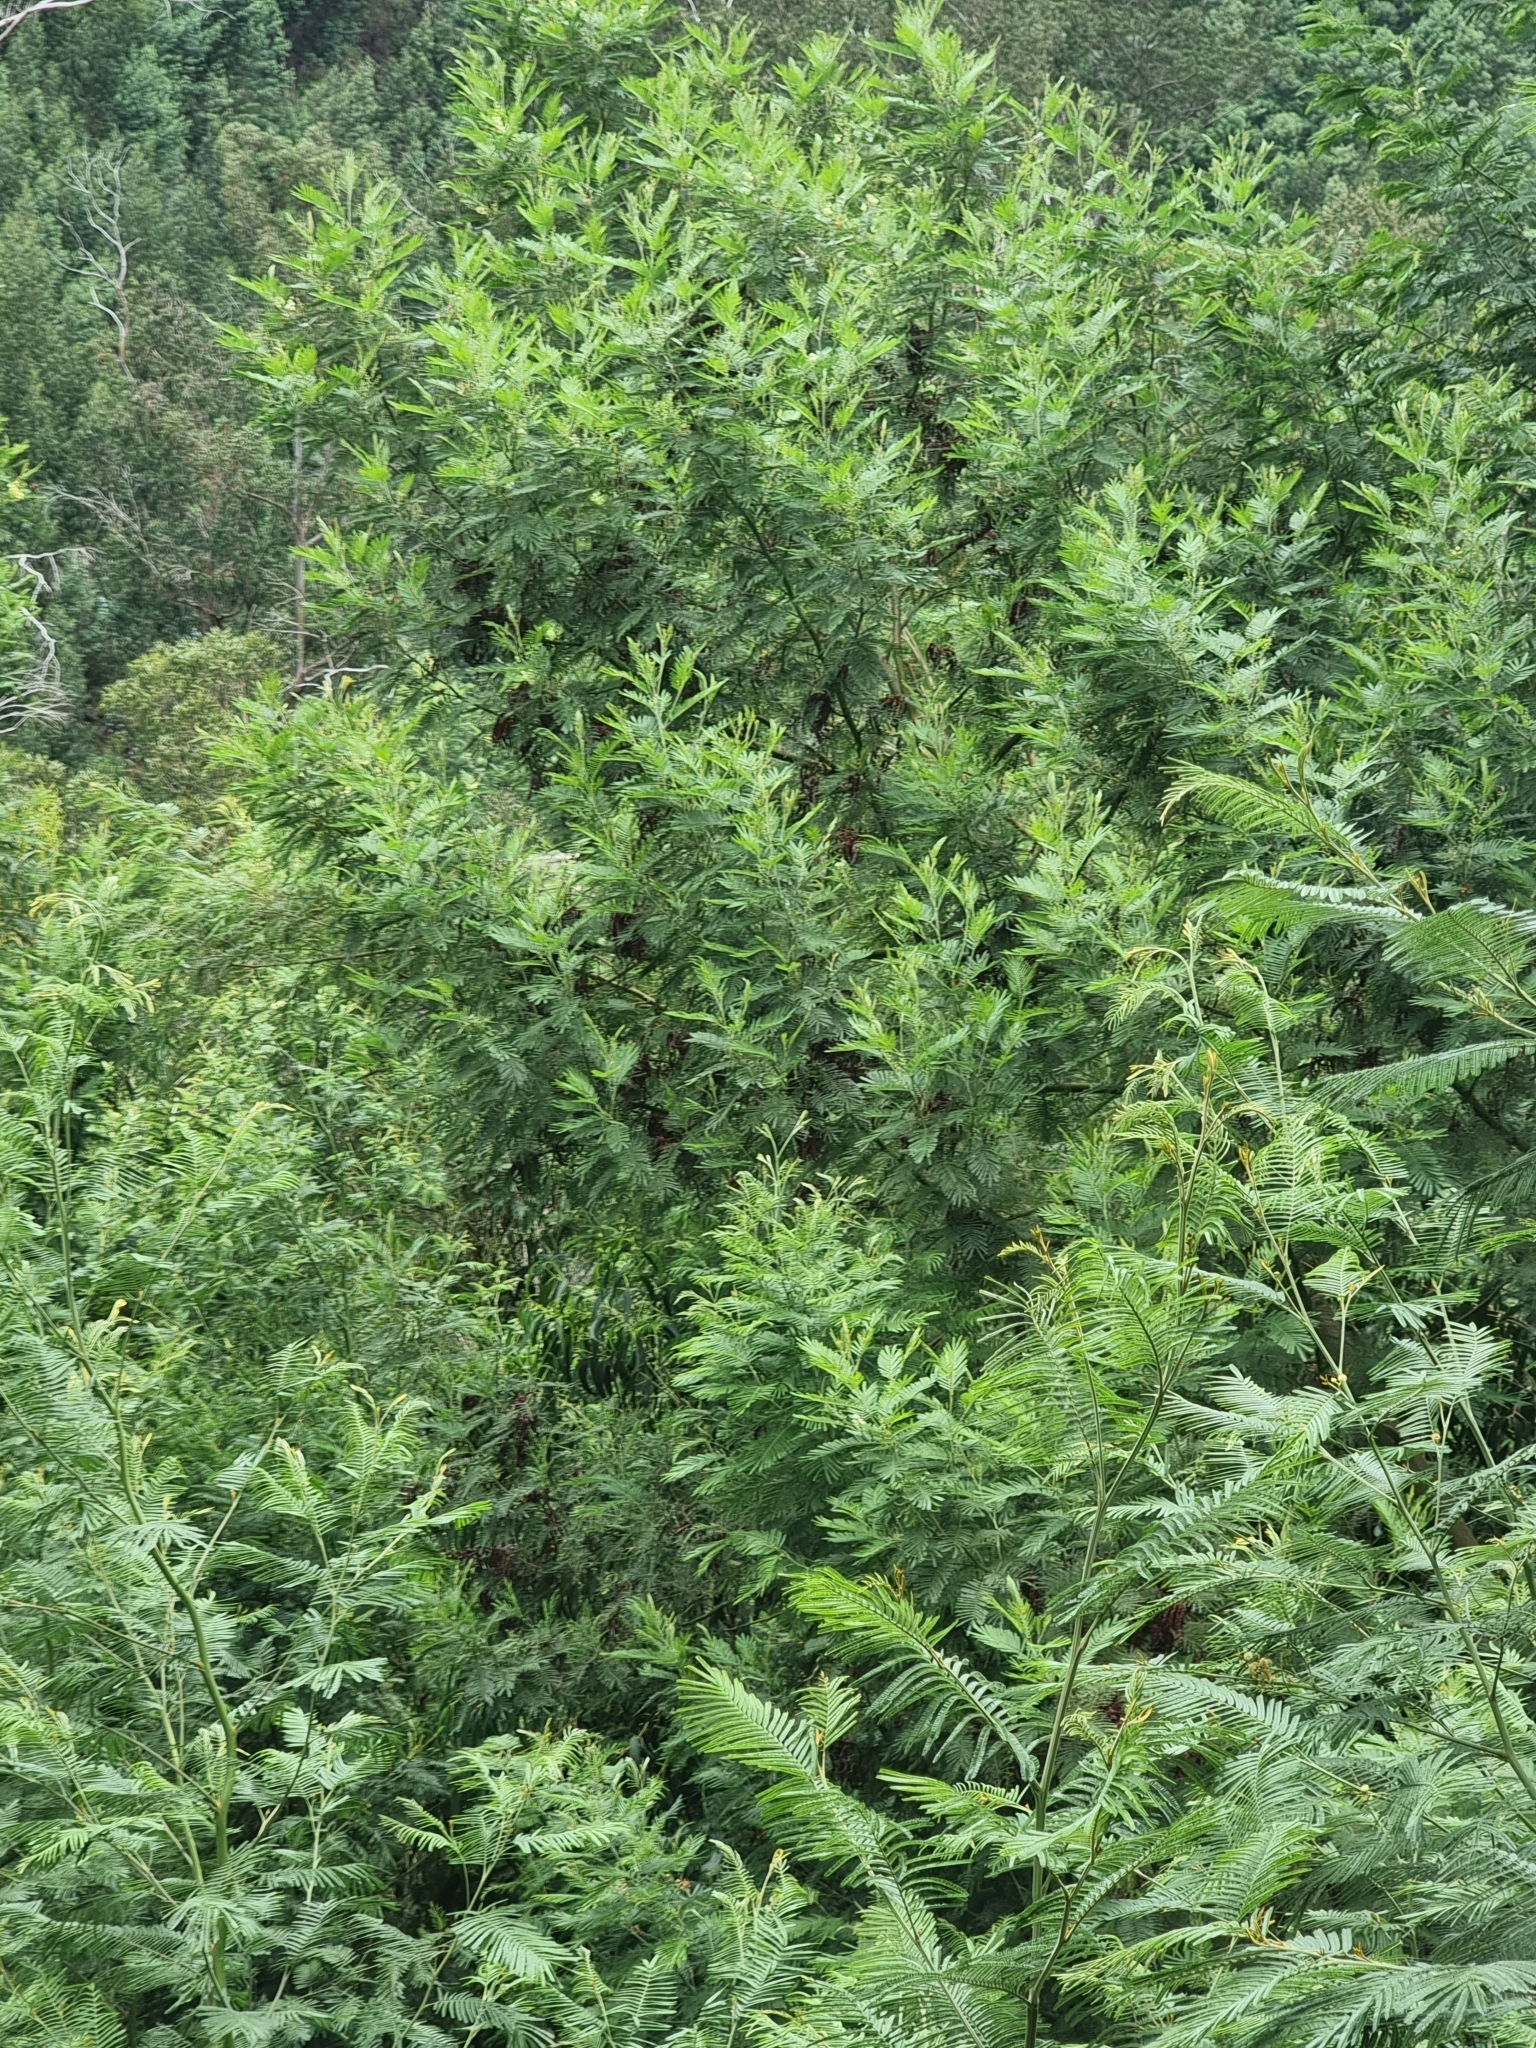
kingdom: Plantae
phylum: Tracheophyta
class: Magnoliopsida
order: Fabales
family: Fabaceae
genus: Acacia
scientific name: Acacia mearnsii
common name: Black wattle
